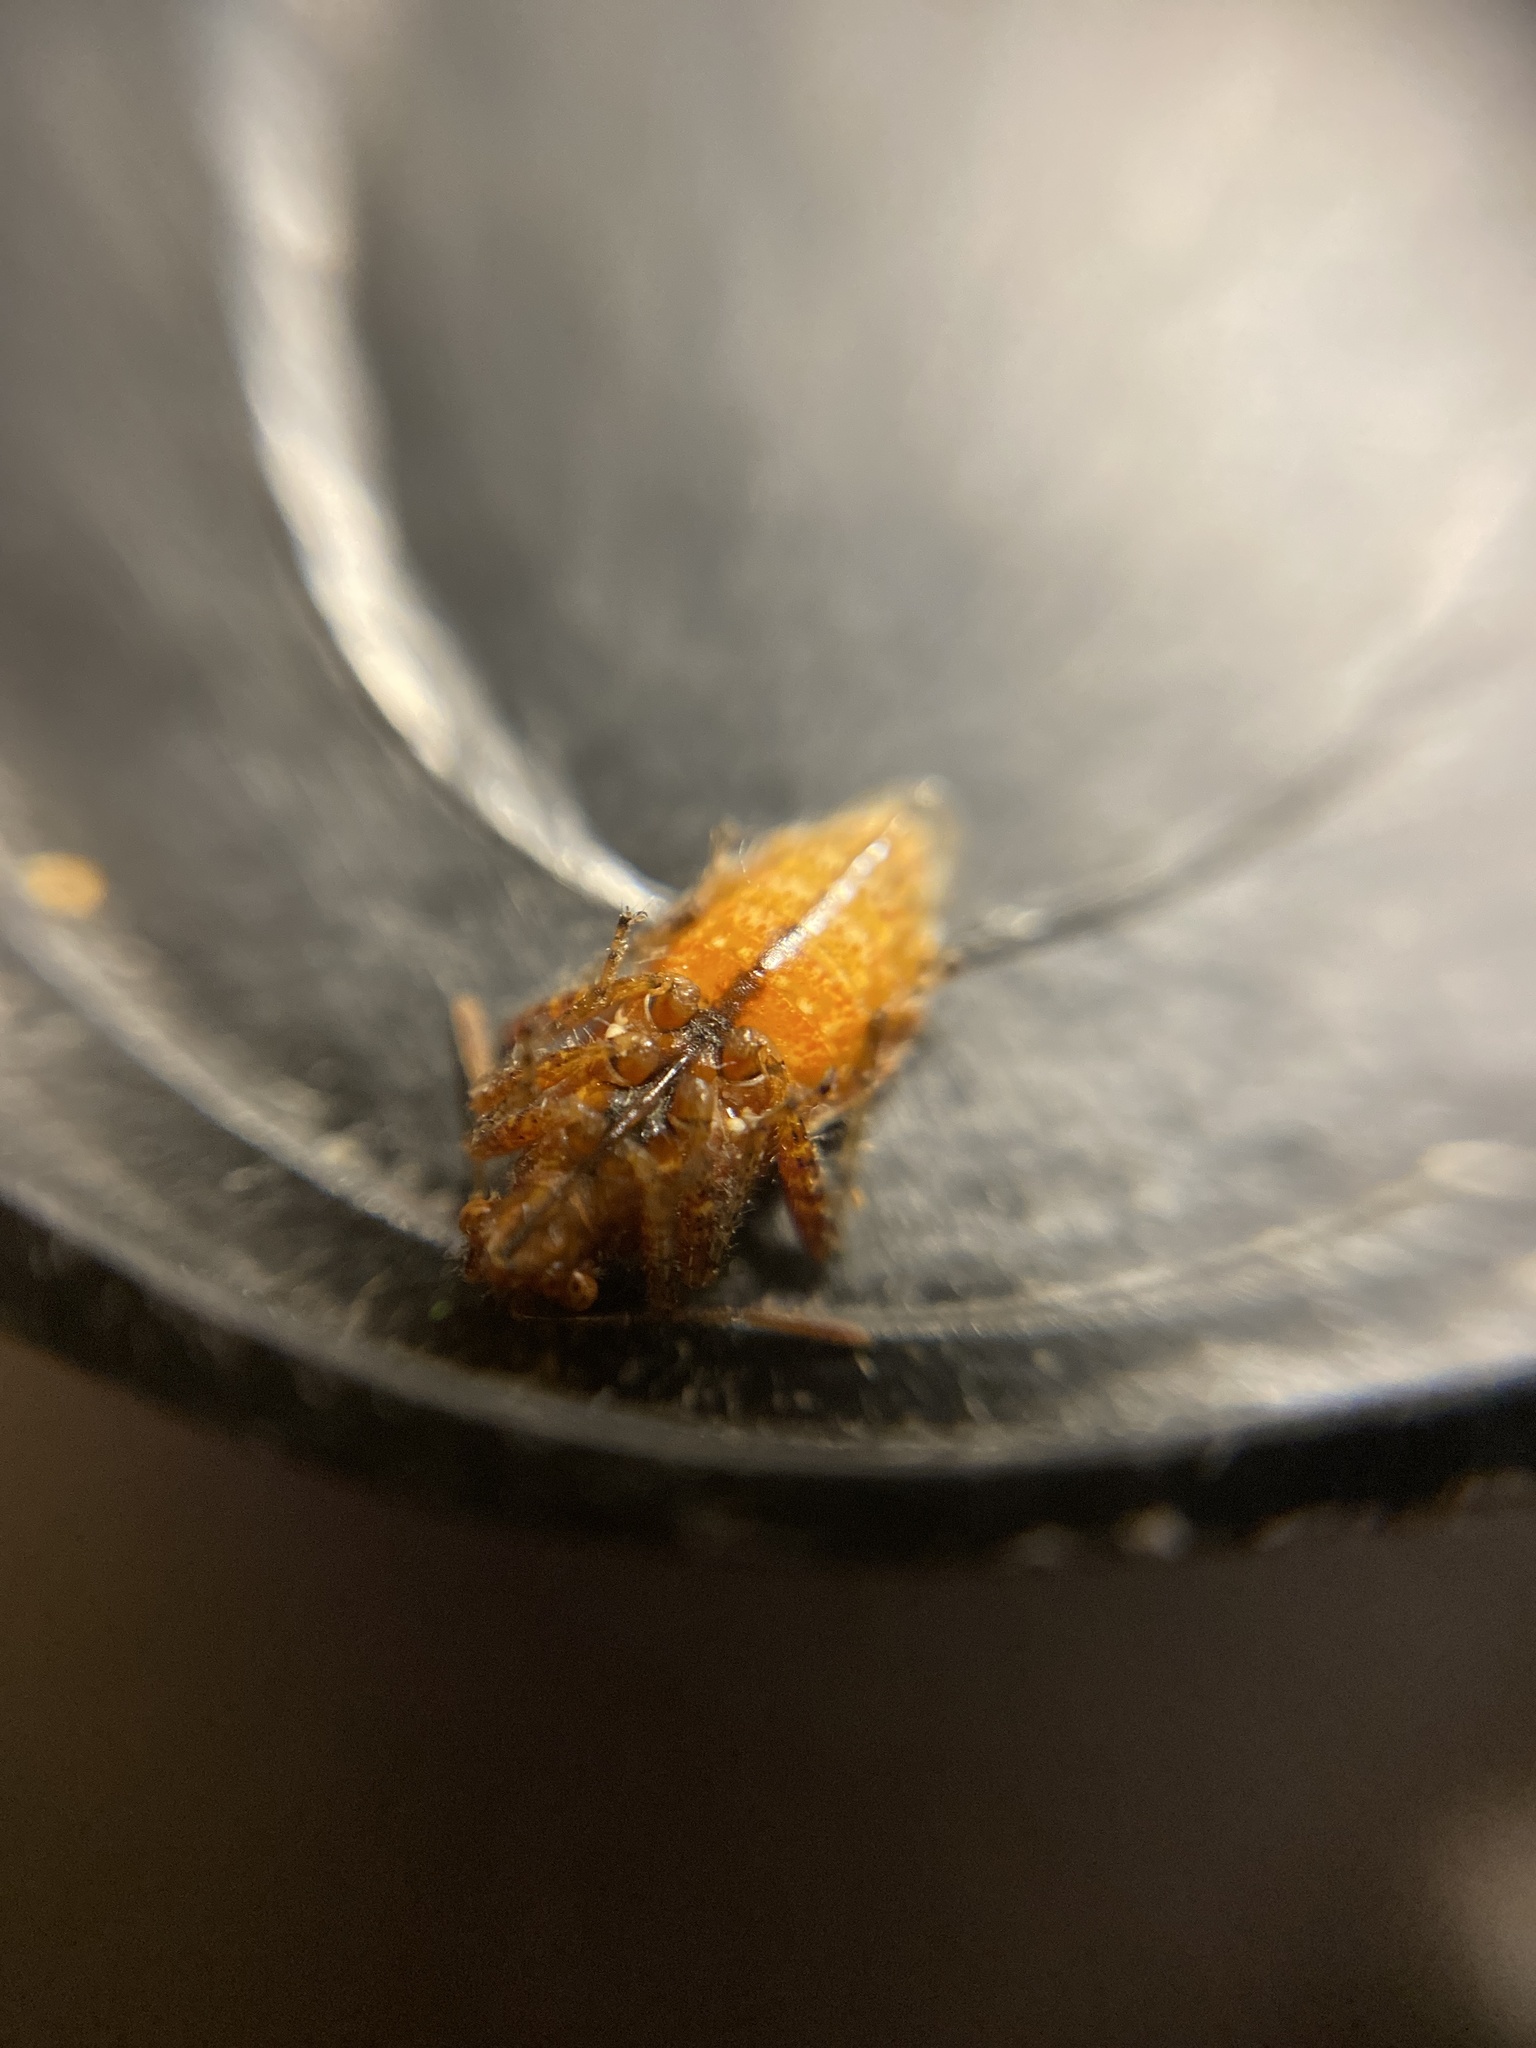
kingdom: Animalia
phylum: Arthropoda
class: Insecta
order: Hemiptera
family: Rhopalidae
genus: Rhopalus
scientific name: Rhopalus subrufus
